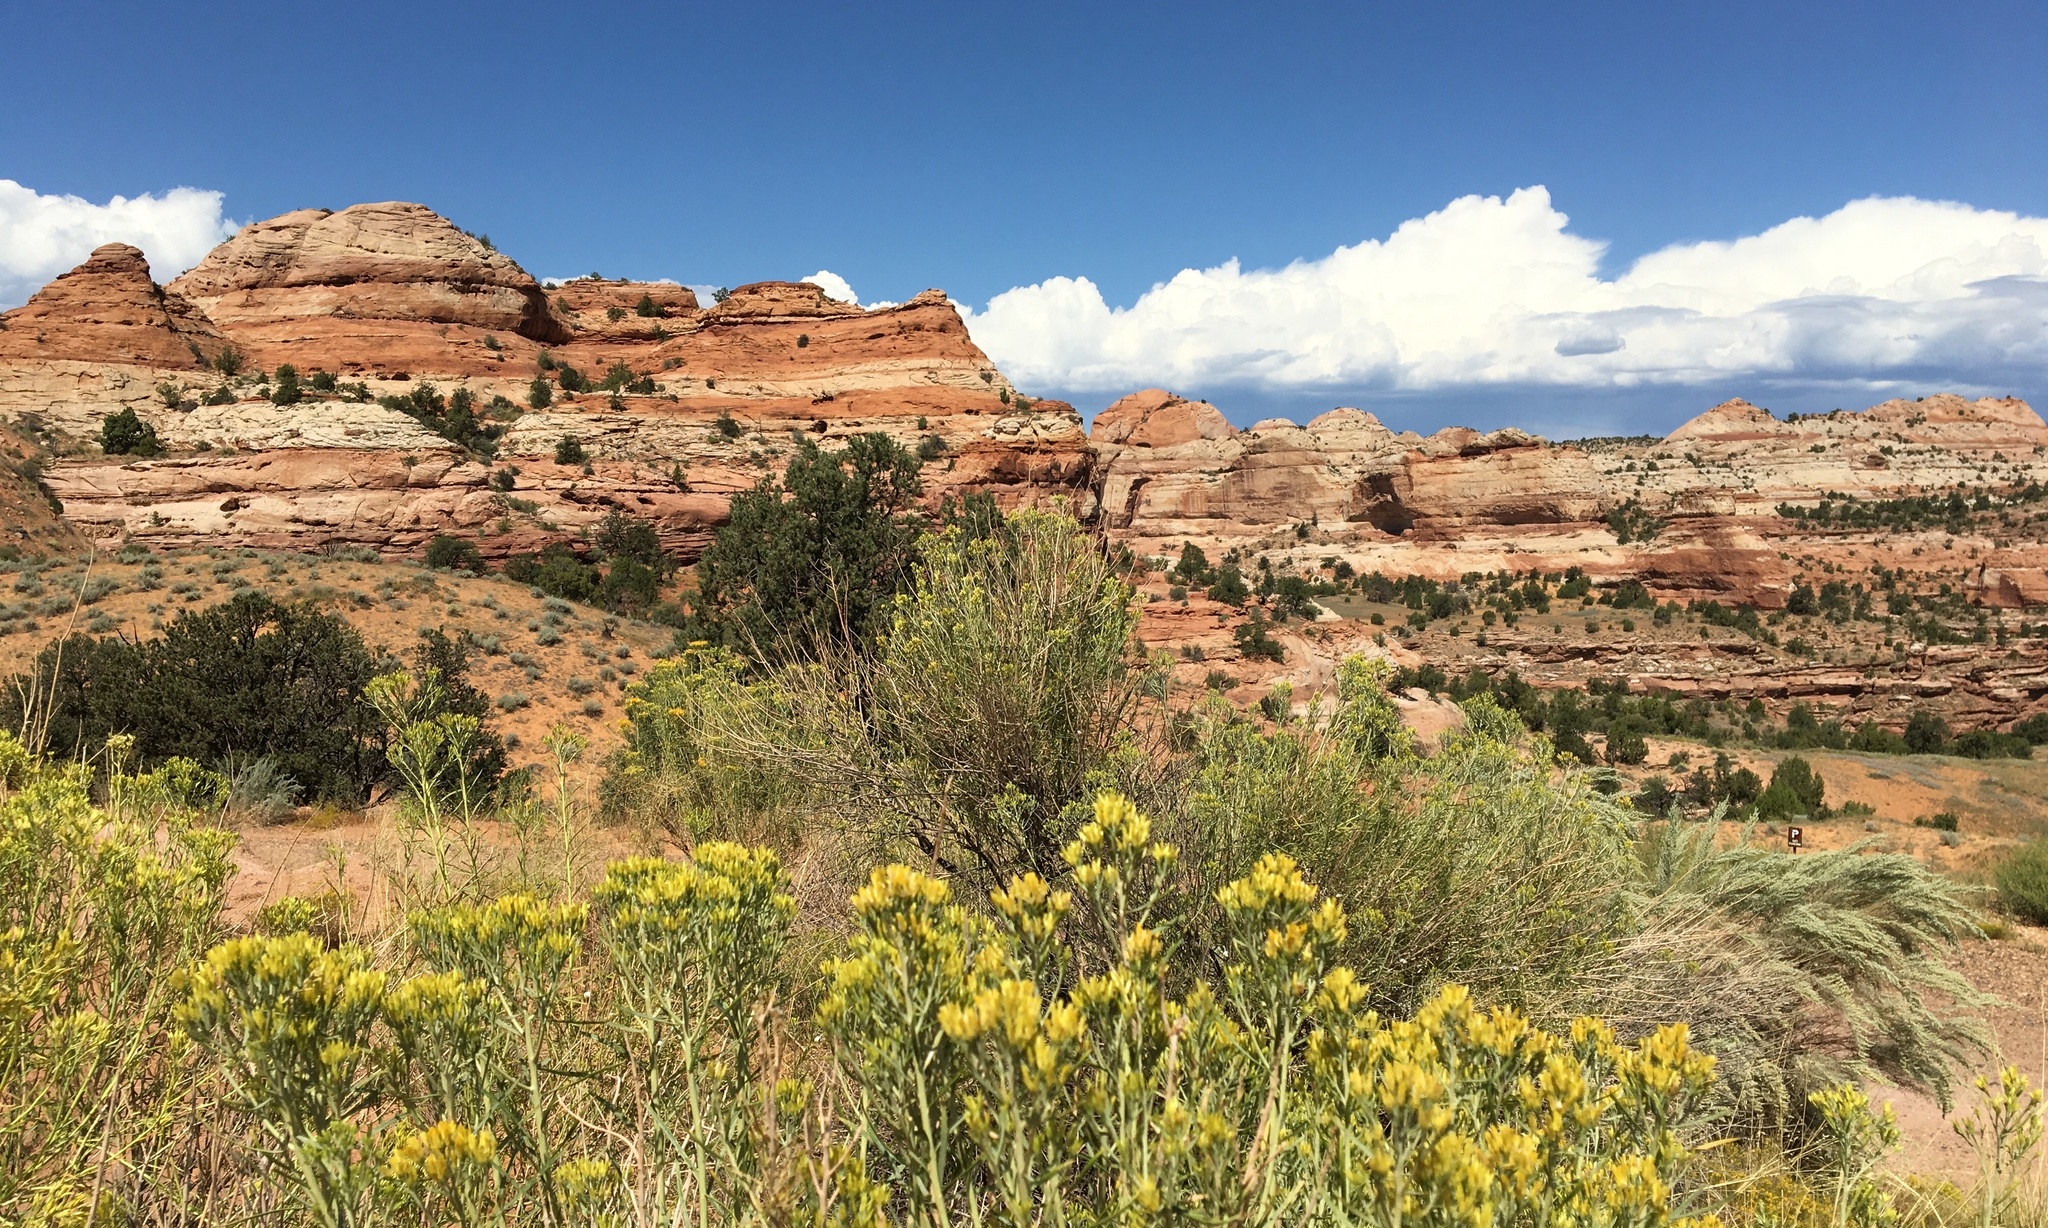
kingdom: Plantae
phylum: Tracheophyta
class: Magnoliopsida
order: Asterales
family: Asteraceae
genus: Ericameria
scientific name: Ericameria nauseosa
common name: Rubber rabbitbrush
